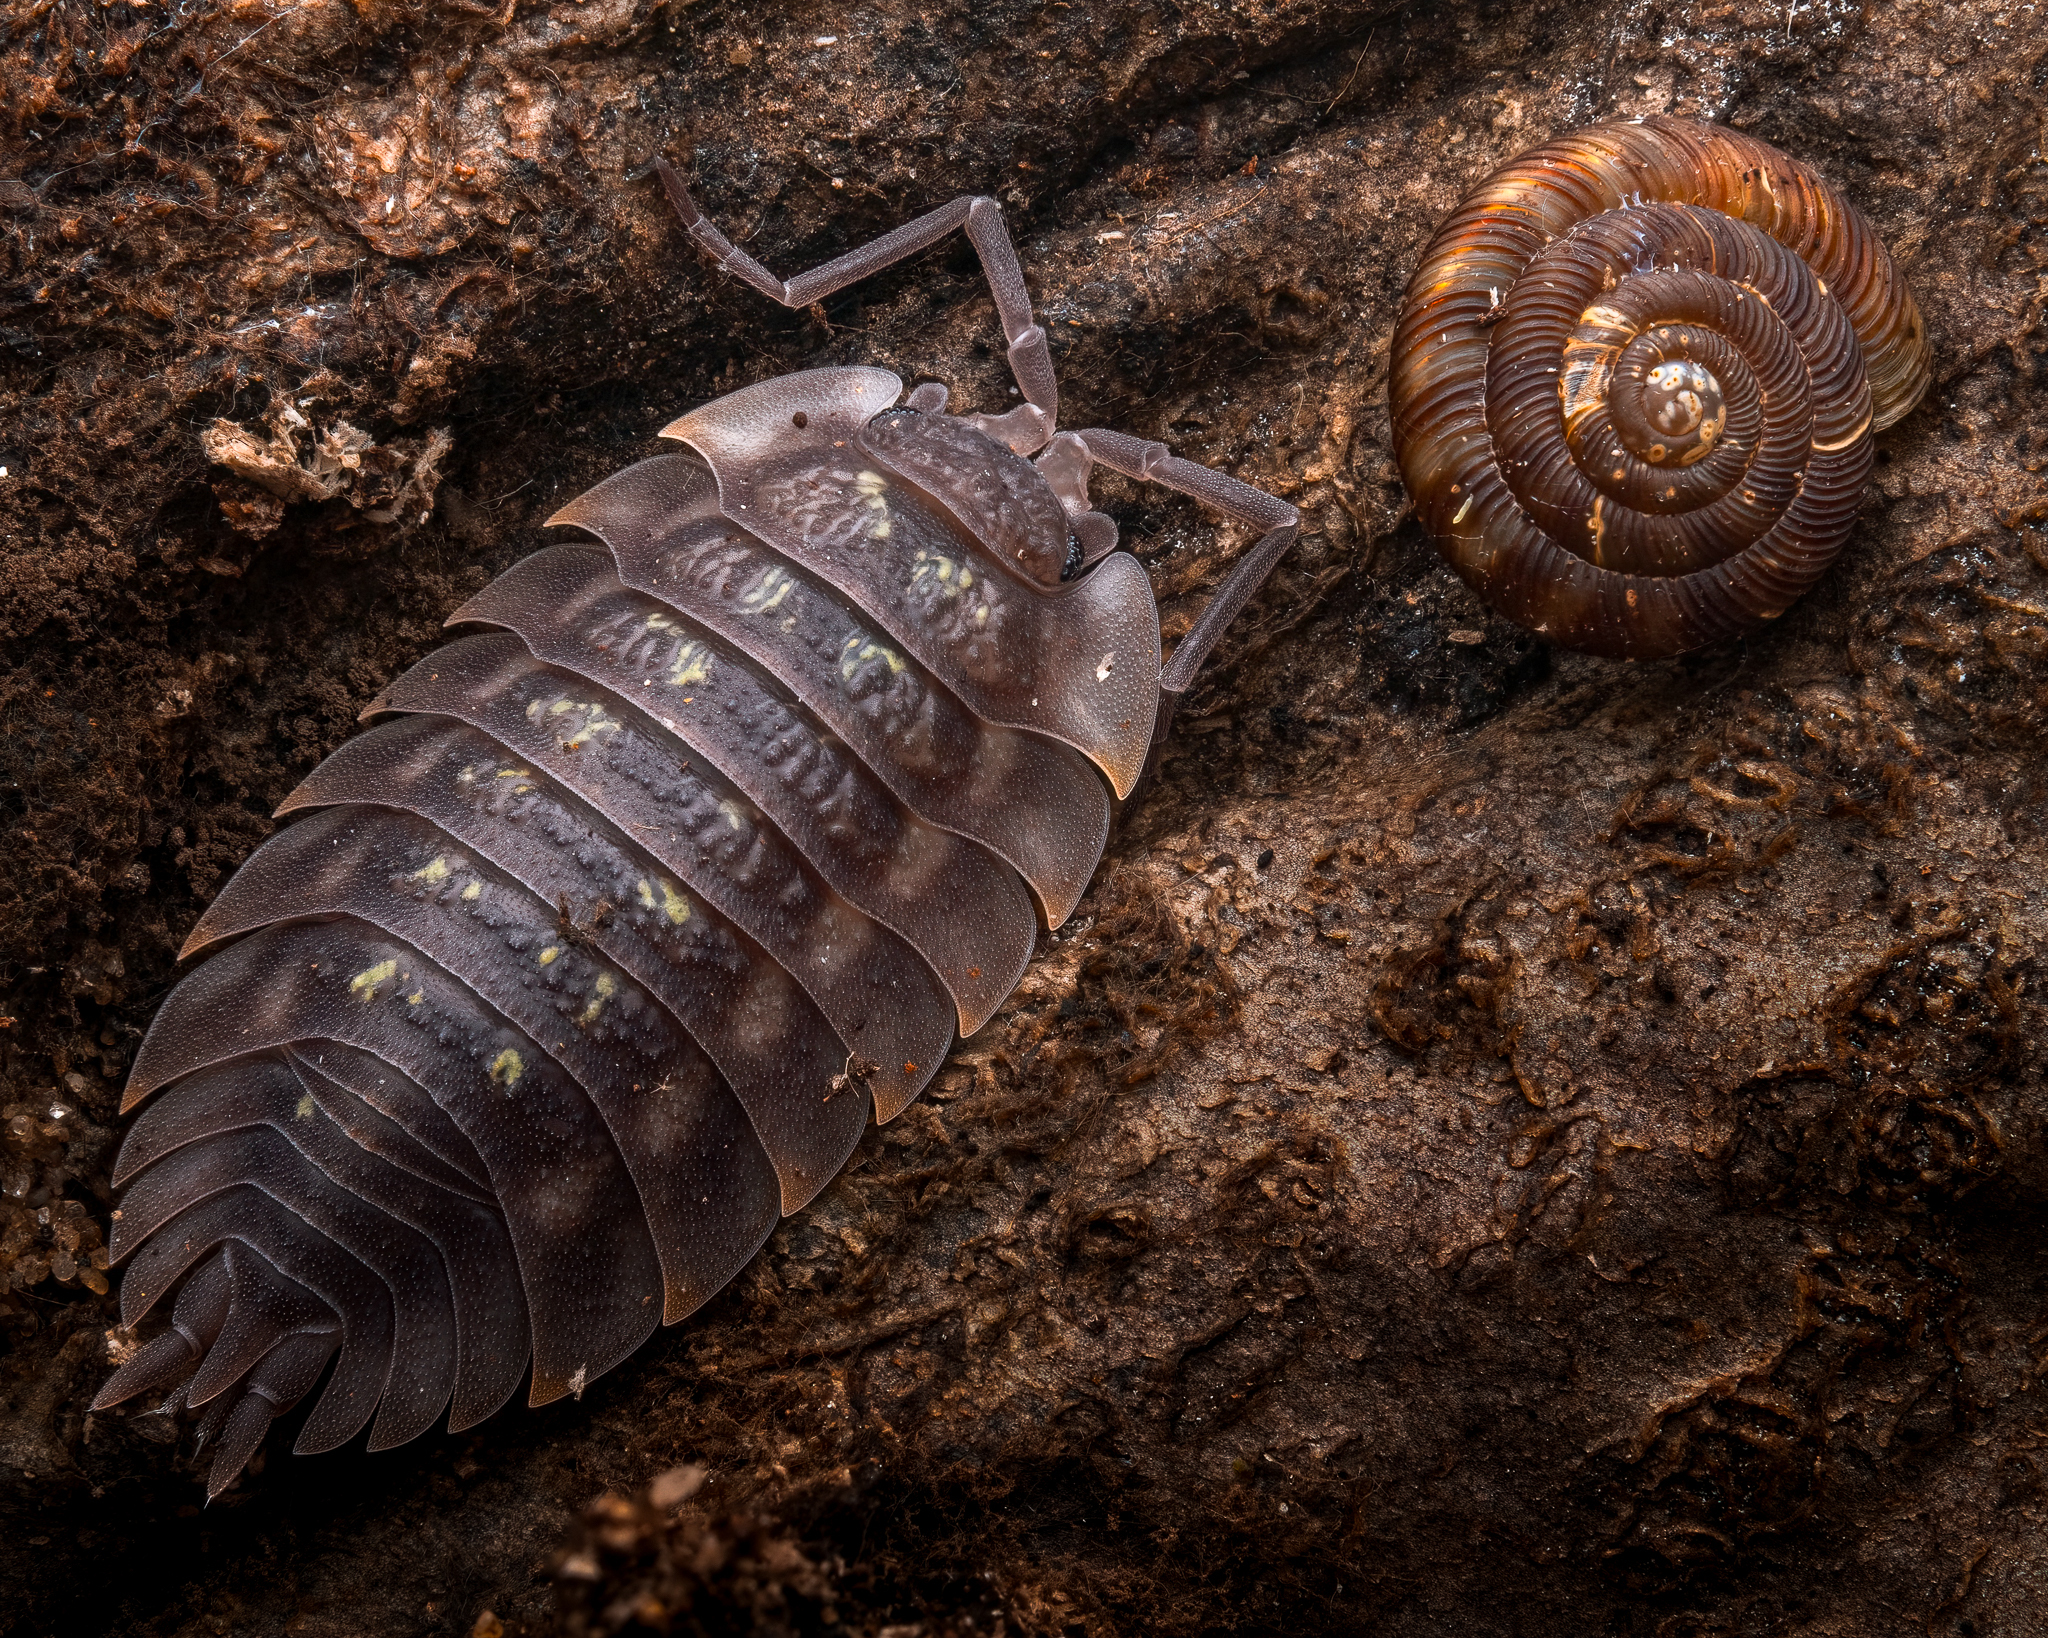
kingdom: Animalia
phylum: Arthropoda
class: Malacostraca
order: Isopoda
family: Oniscidae
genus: Oniscus
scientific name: Oniscus asellus
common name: Common shiny woodlouse
